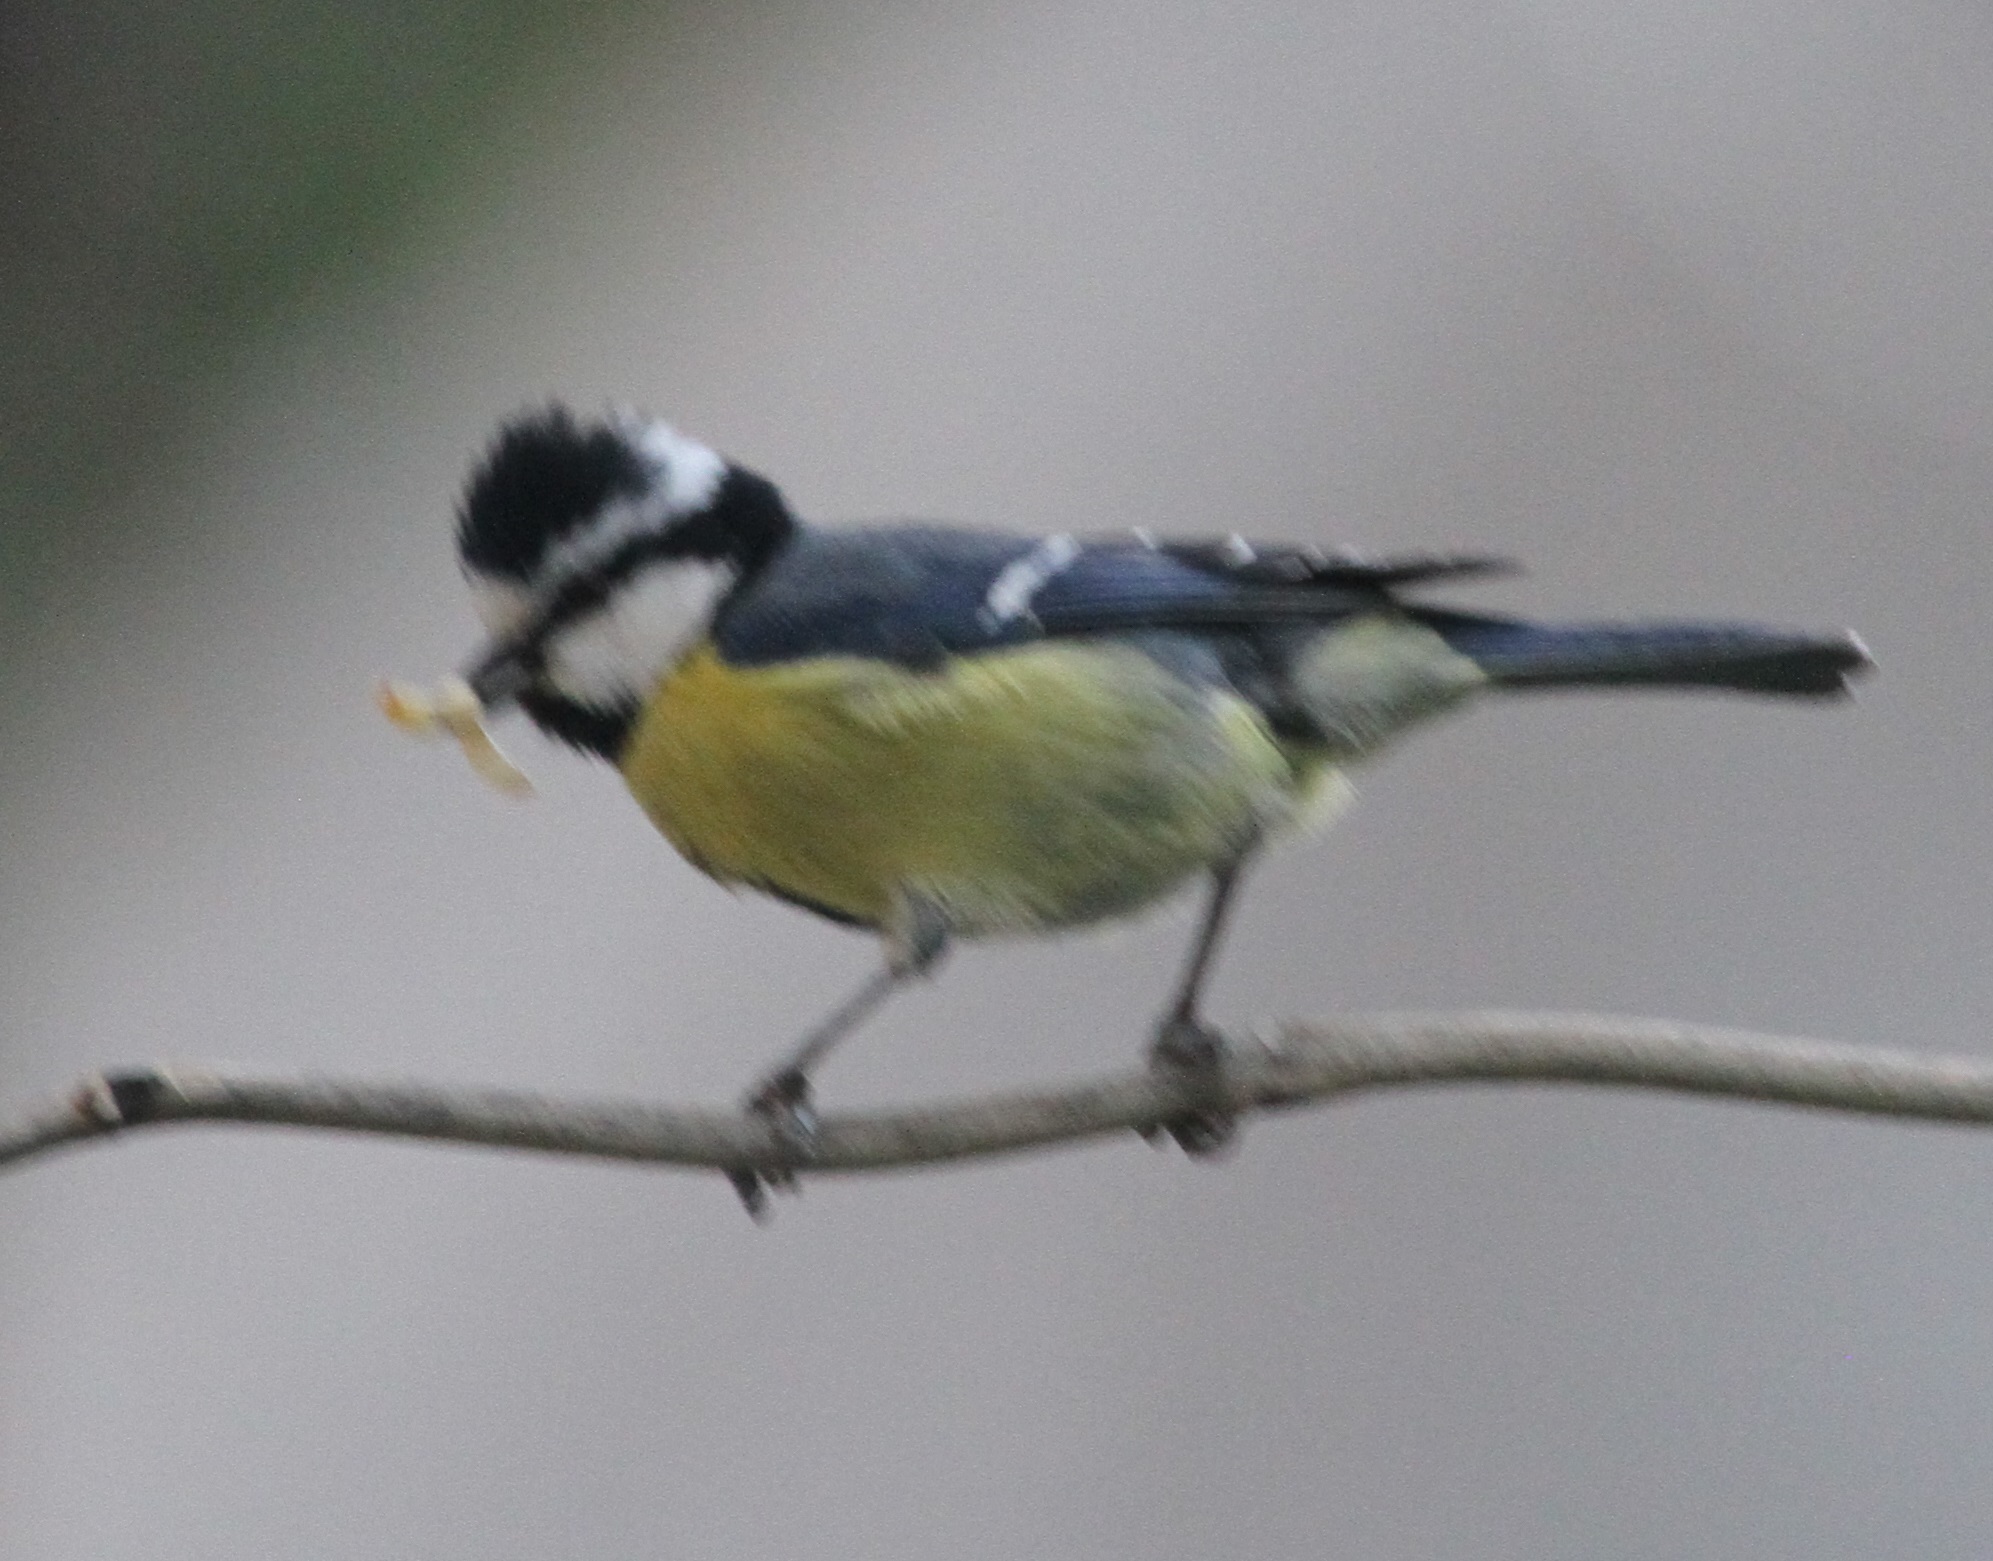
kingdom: Animalia
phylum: Chordata
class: Aves
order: Passeriformes
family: Paridae
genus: Cyanistes
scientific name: Cyanistes teneriffae
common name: African blue tit
